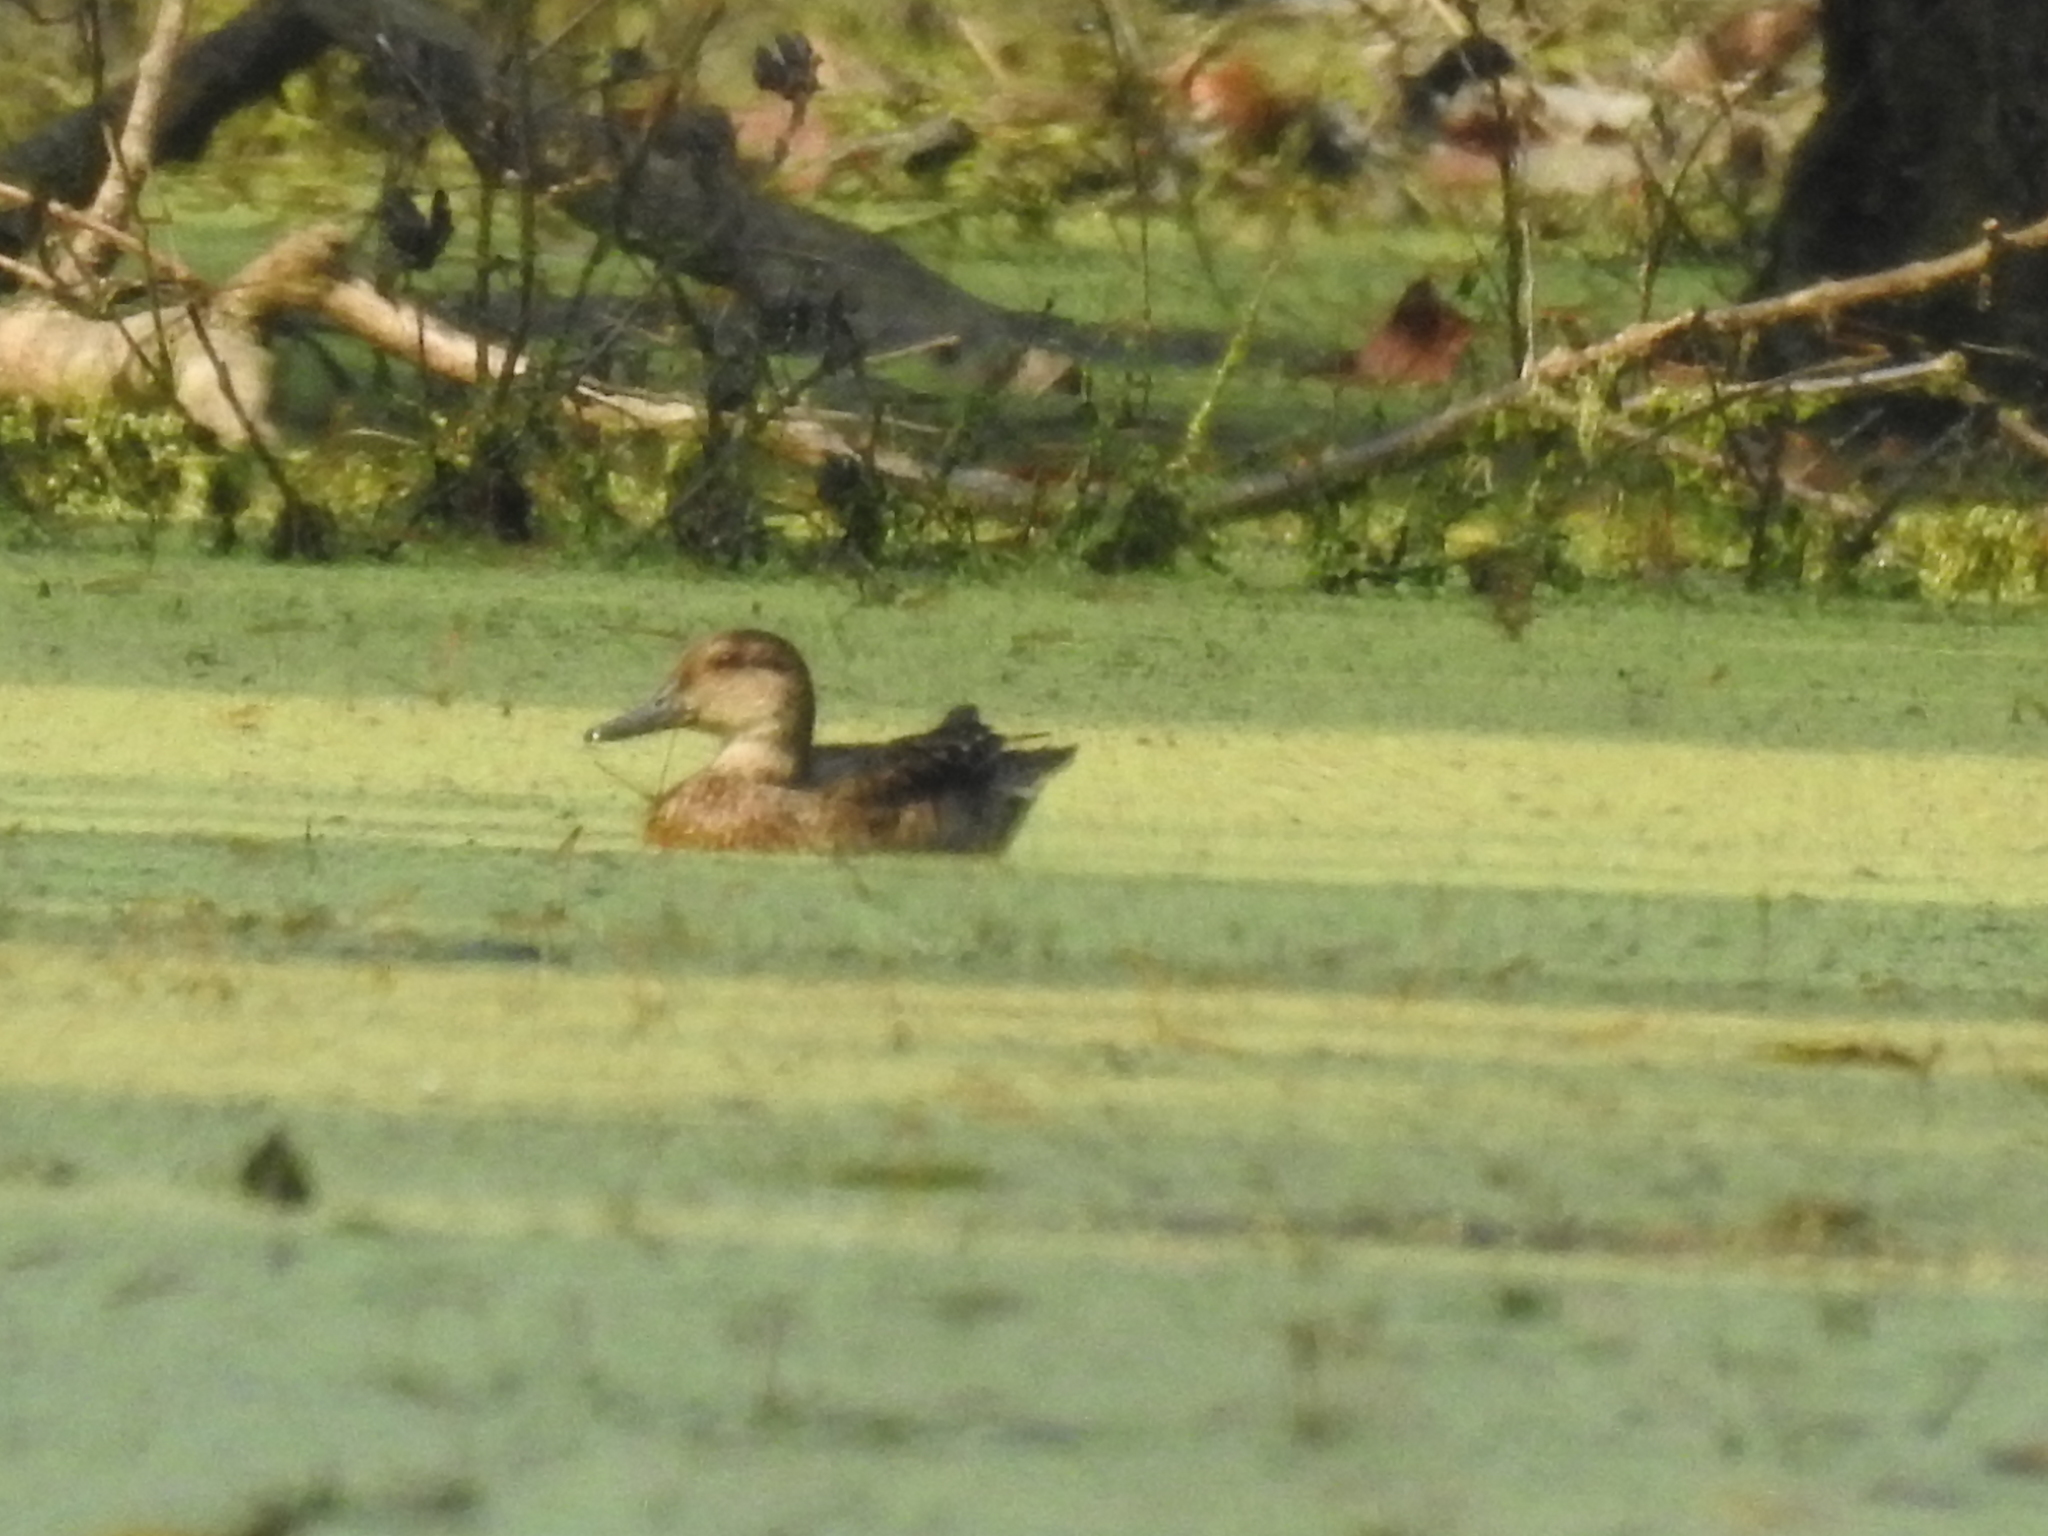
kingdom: Animalia
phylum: Chordata
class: Aves
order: Anseriformes
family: Anatidae
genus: Anas
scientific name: Anas crecca
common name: Eurasian teal
